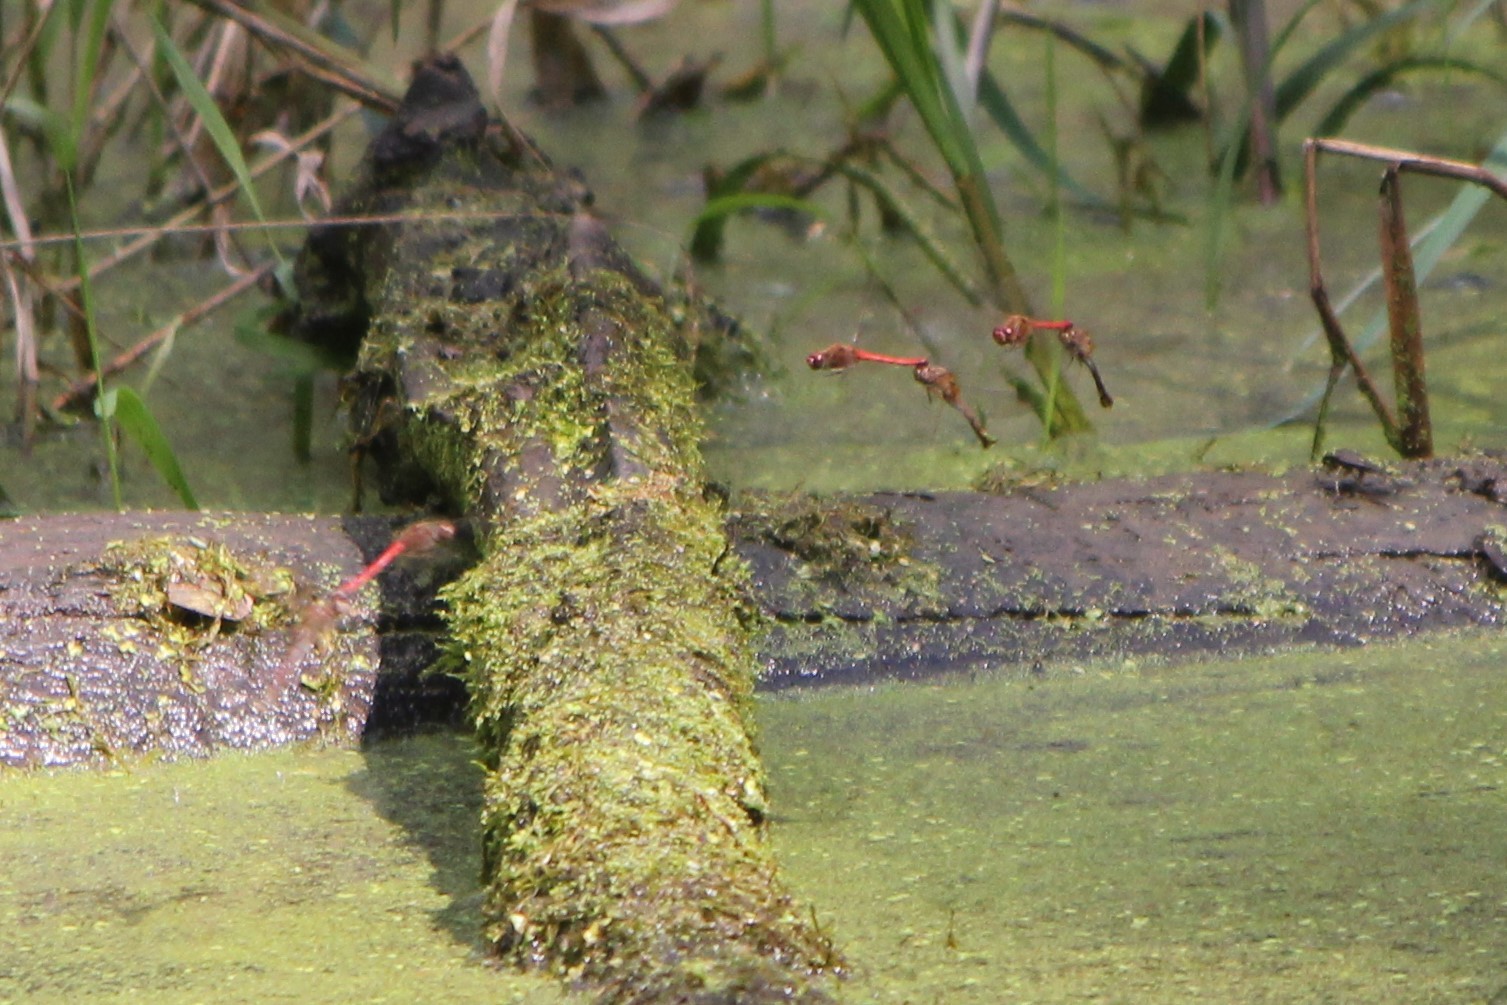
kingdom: Animalia
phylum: Arthropoda
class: Insecta
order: Odonata
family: Libellulidae
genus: Sympetrum
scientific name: Sympetrum vicinum
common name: Autumn meadowhawk
